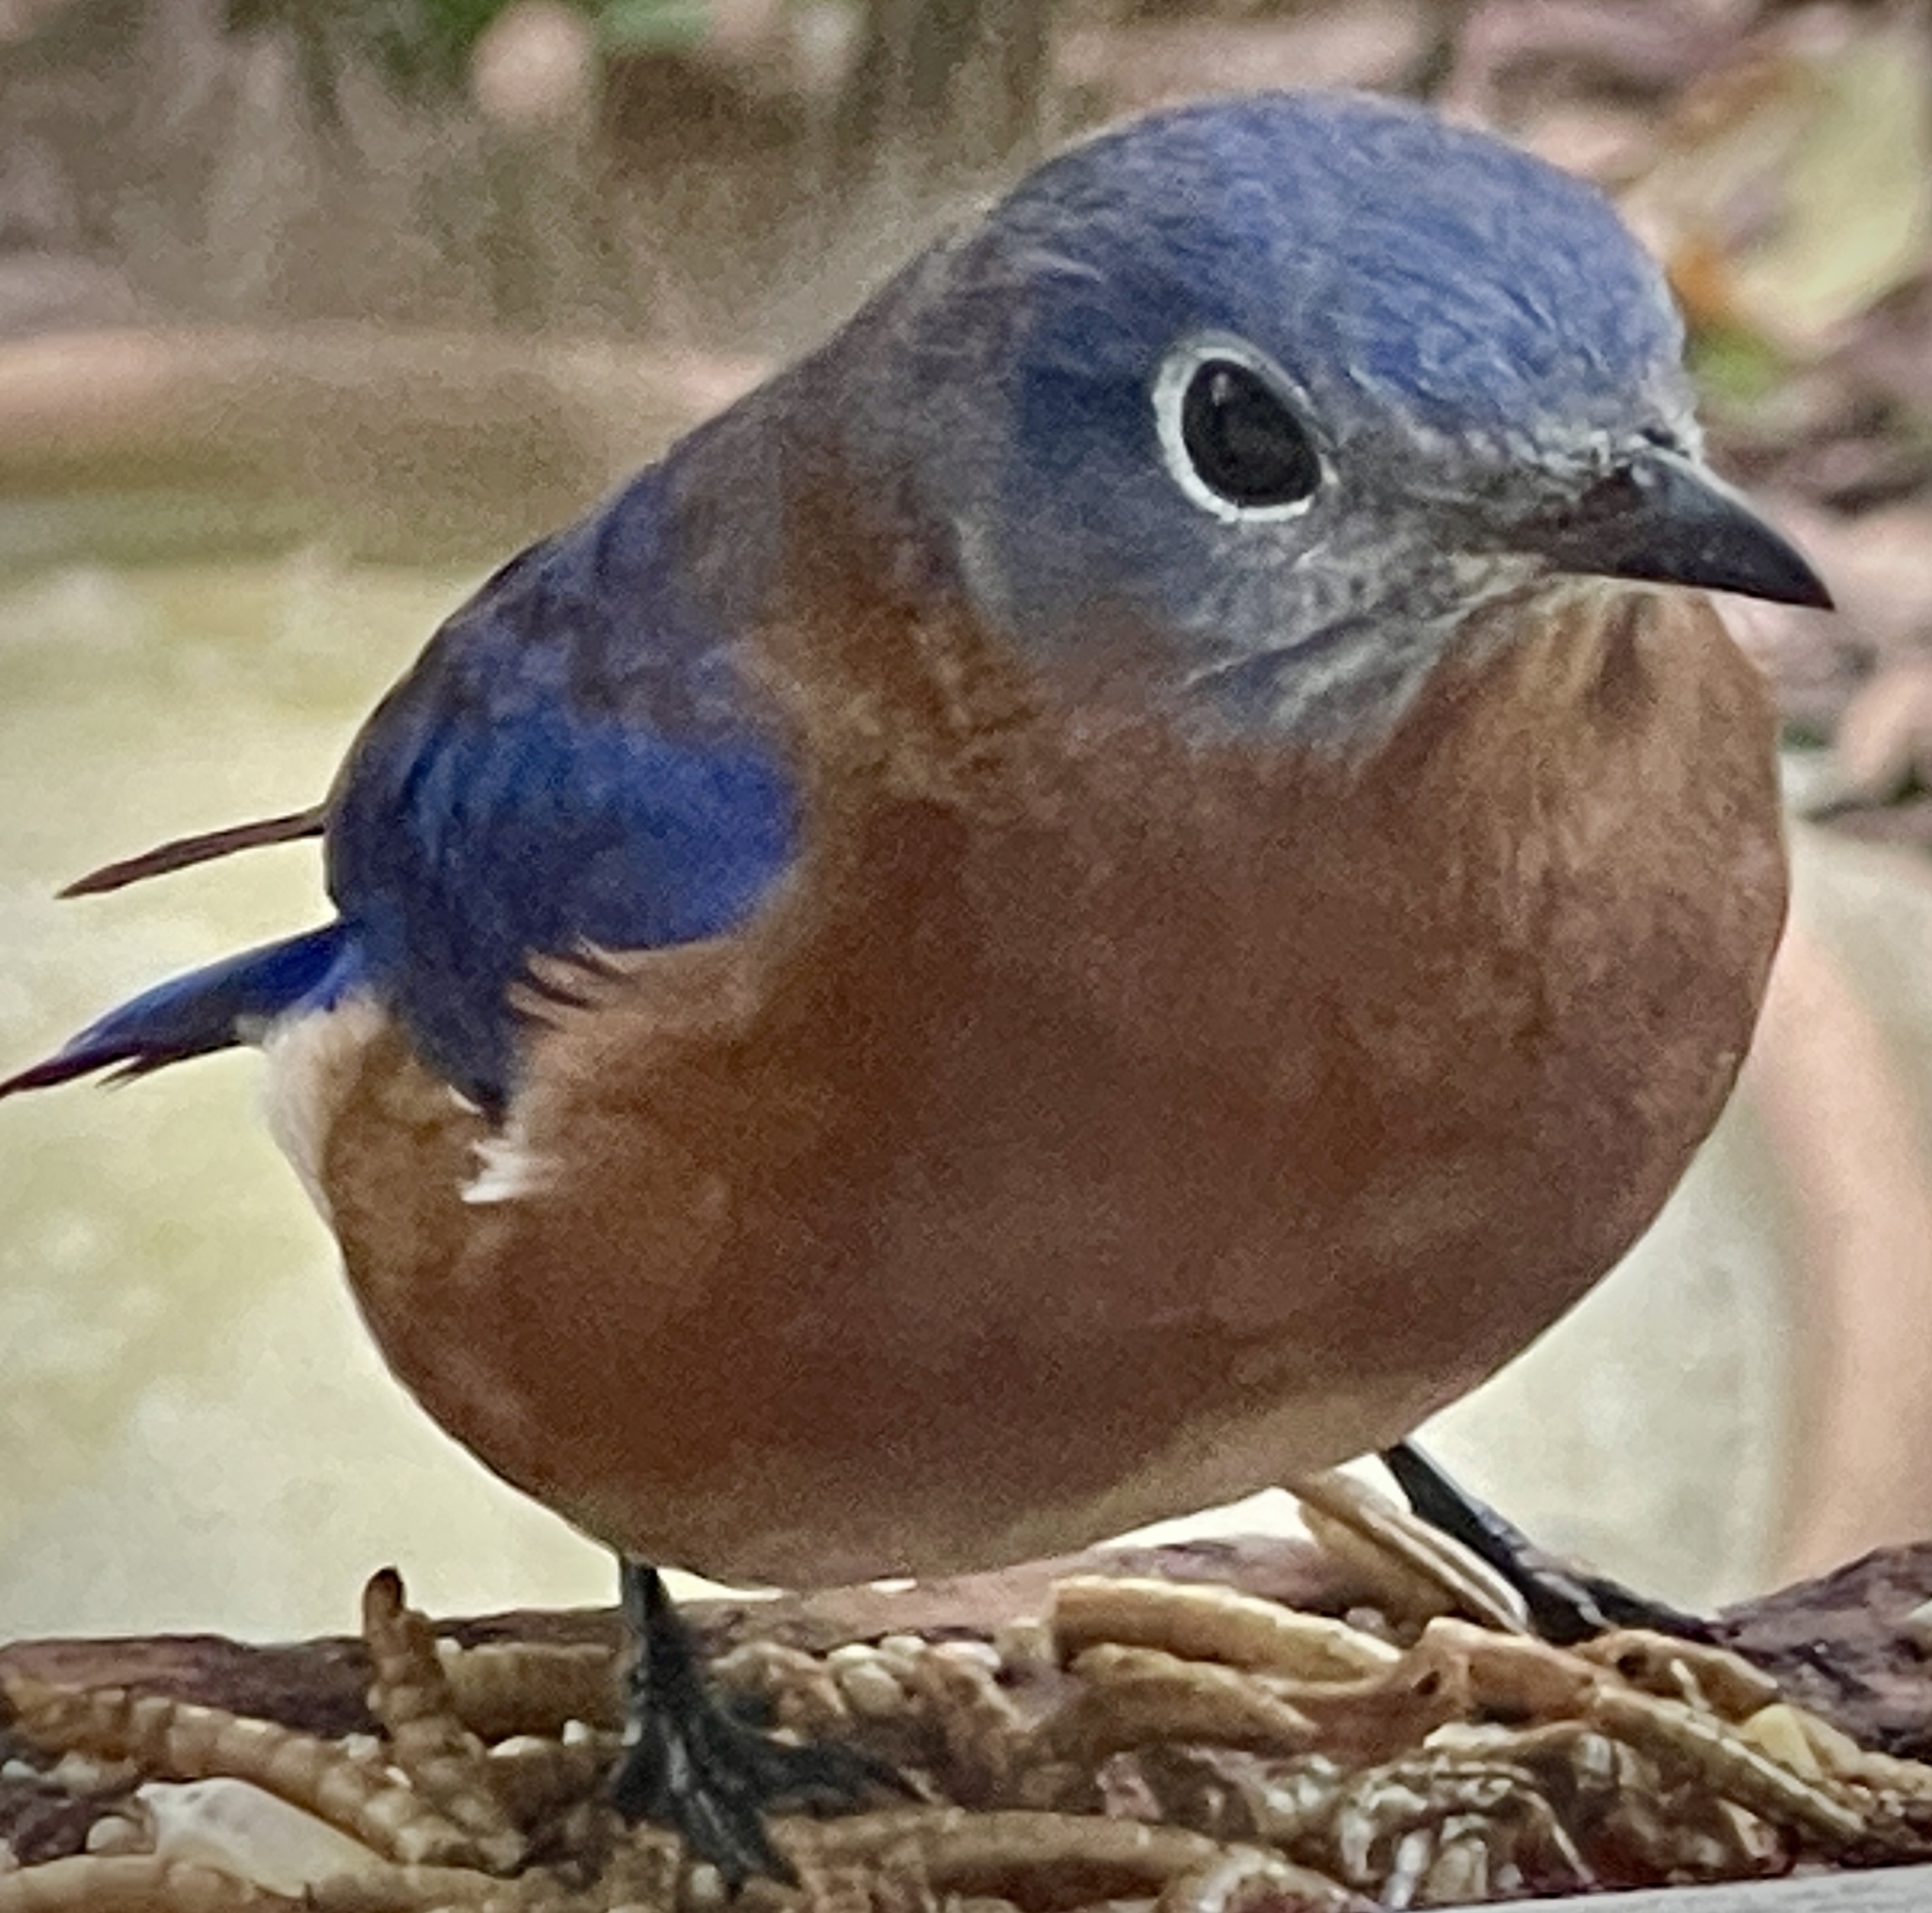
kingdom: Animalia
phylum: Chordata
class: Aves
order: Passeriformes
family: Turdidae
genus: Sialia
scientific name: Sialia sialis
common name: Eastern bluebird
